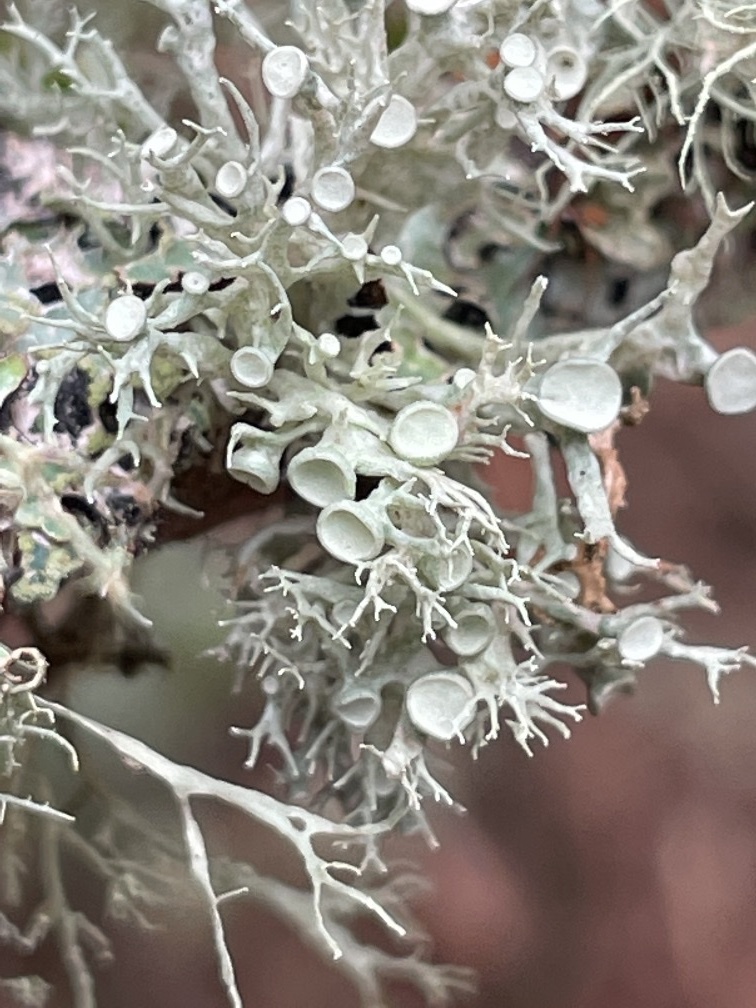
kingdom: Fungi
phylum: Ascomycota
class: Lecanoromycetes
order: Lecanorales
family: Ramalinaceae
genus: Ramalina
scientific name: Ramalina dilacerata
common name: Punctured bushy lichen
